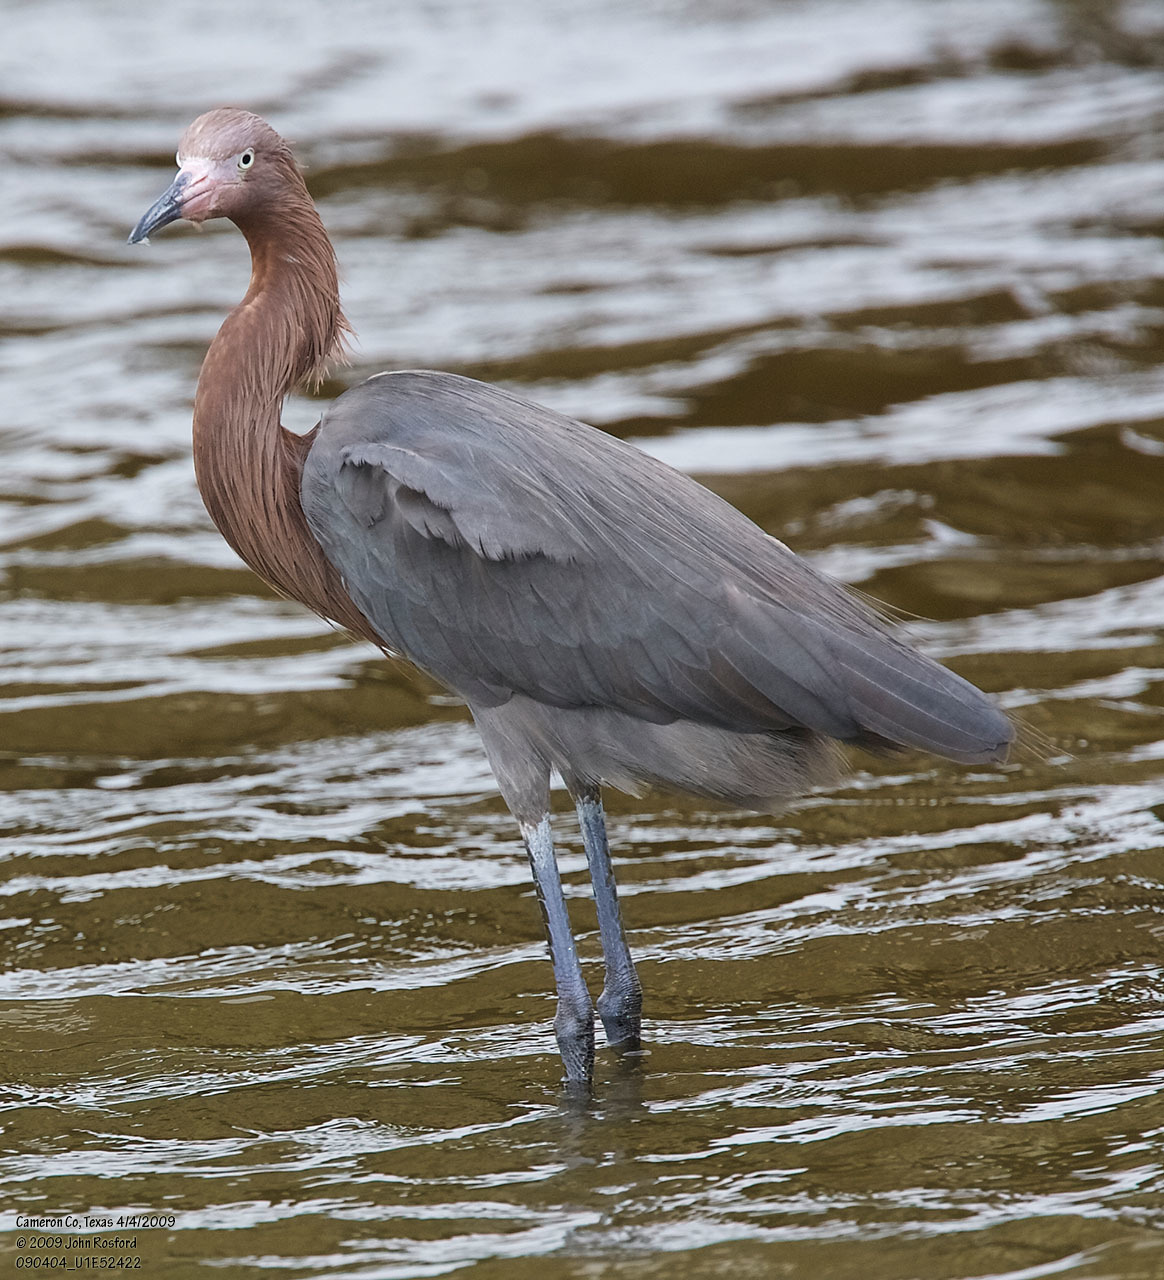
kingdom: Animalia
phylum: Chordata
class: Aves
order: Pelecaniformes
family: Ardeidae
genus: Egretta
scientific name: Egretta rufescens
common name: Reddish egret
